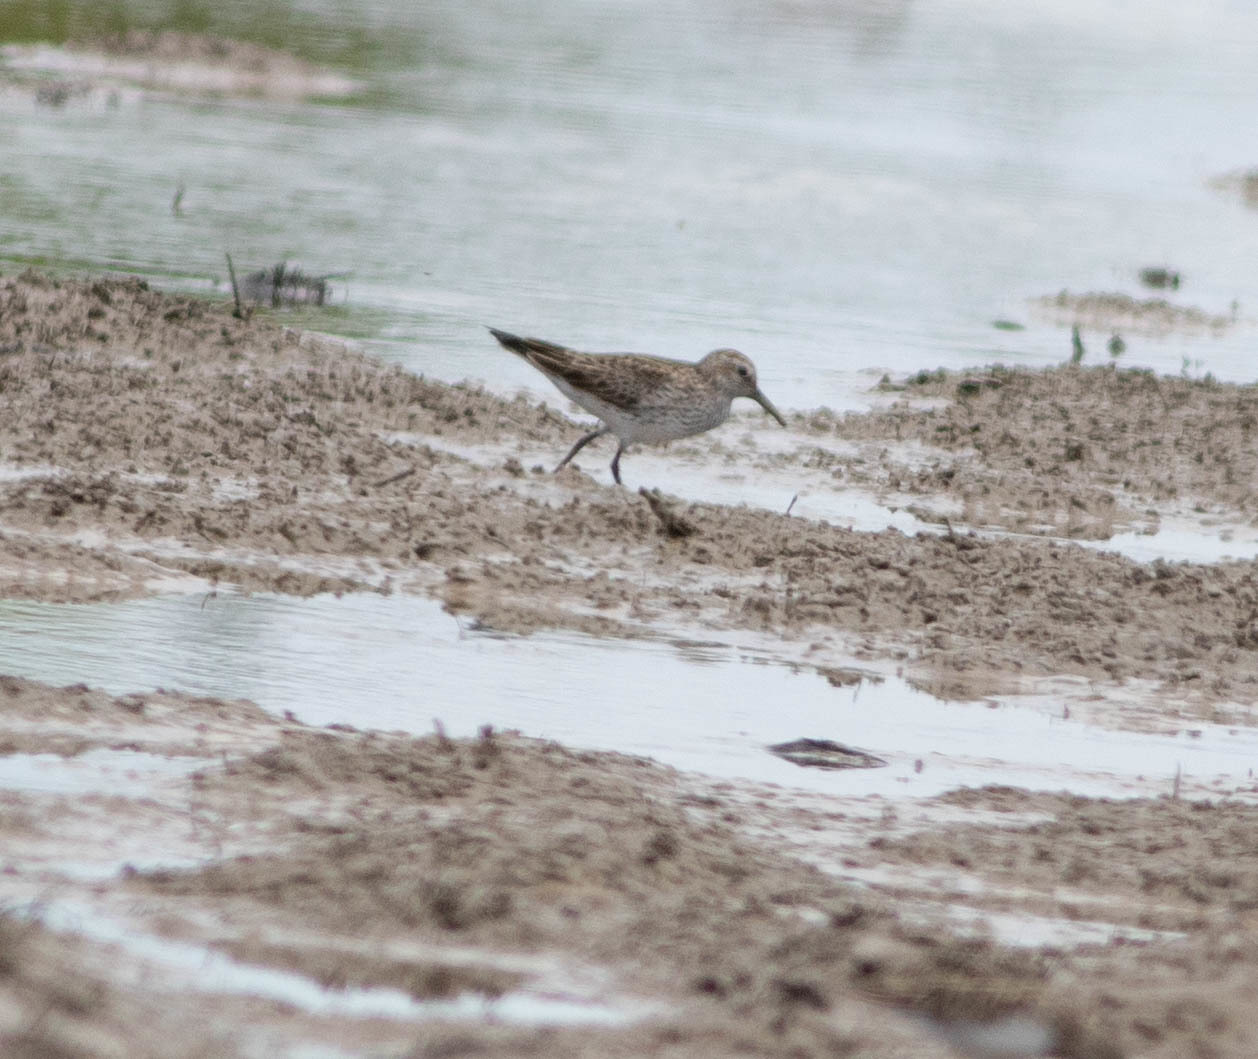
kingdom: Animalia
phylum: Chordata
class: Aves
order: Charadriiformes
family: Scolopacidae
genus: Calidris
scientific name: Calidris fuscicollis
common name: White-rumped sandpiper
